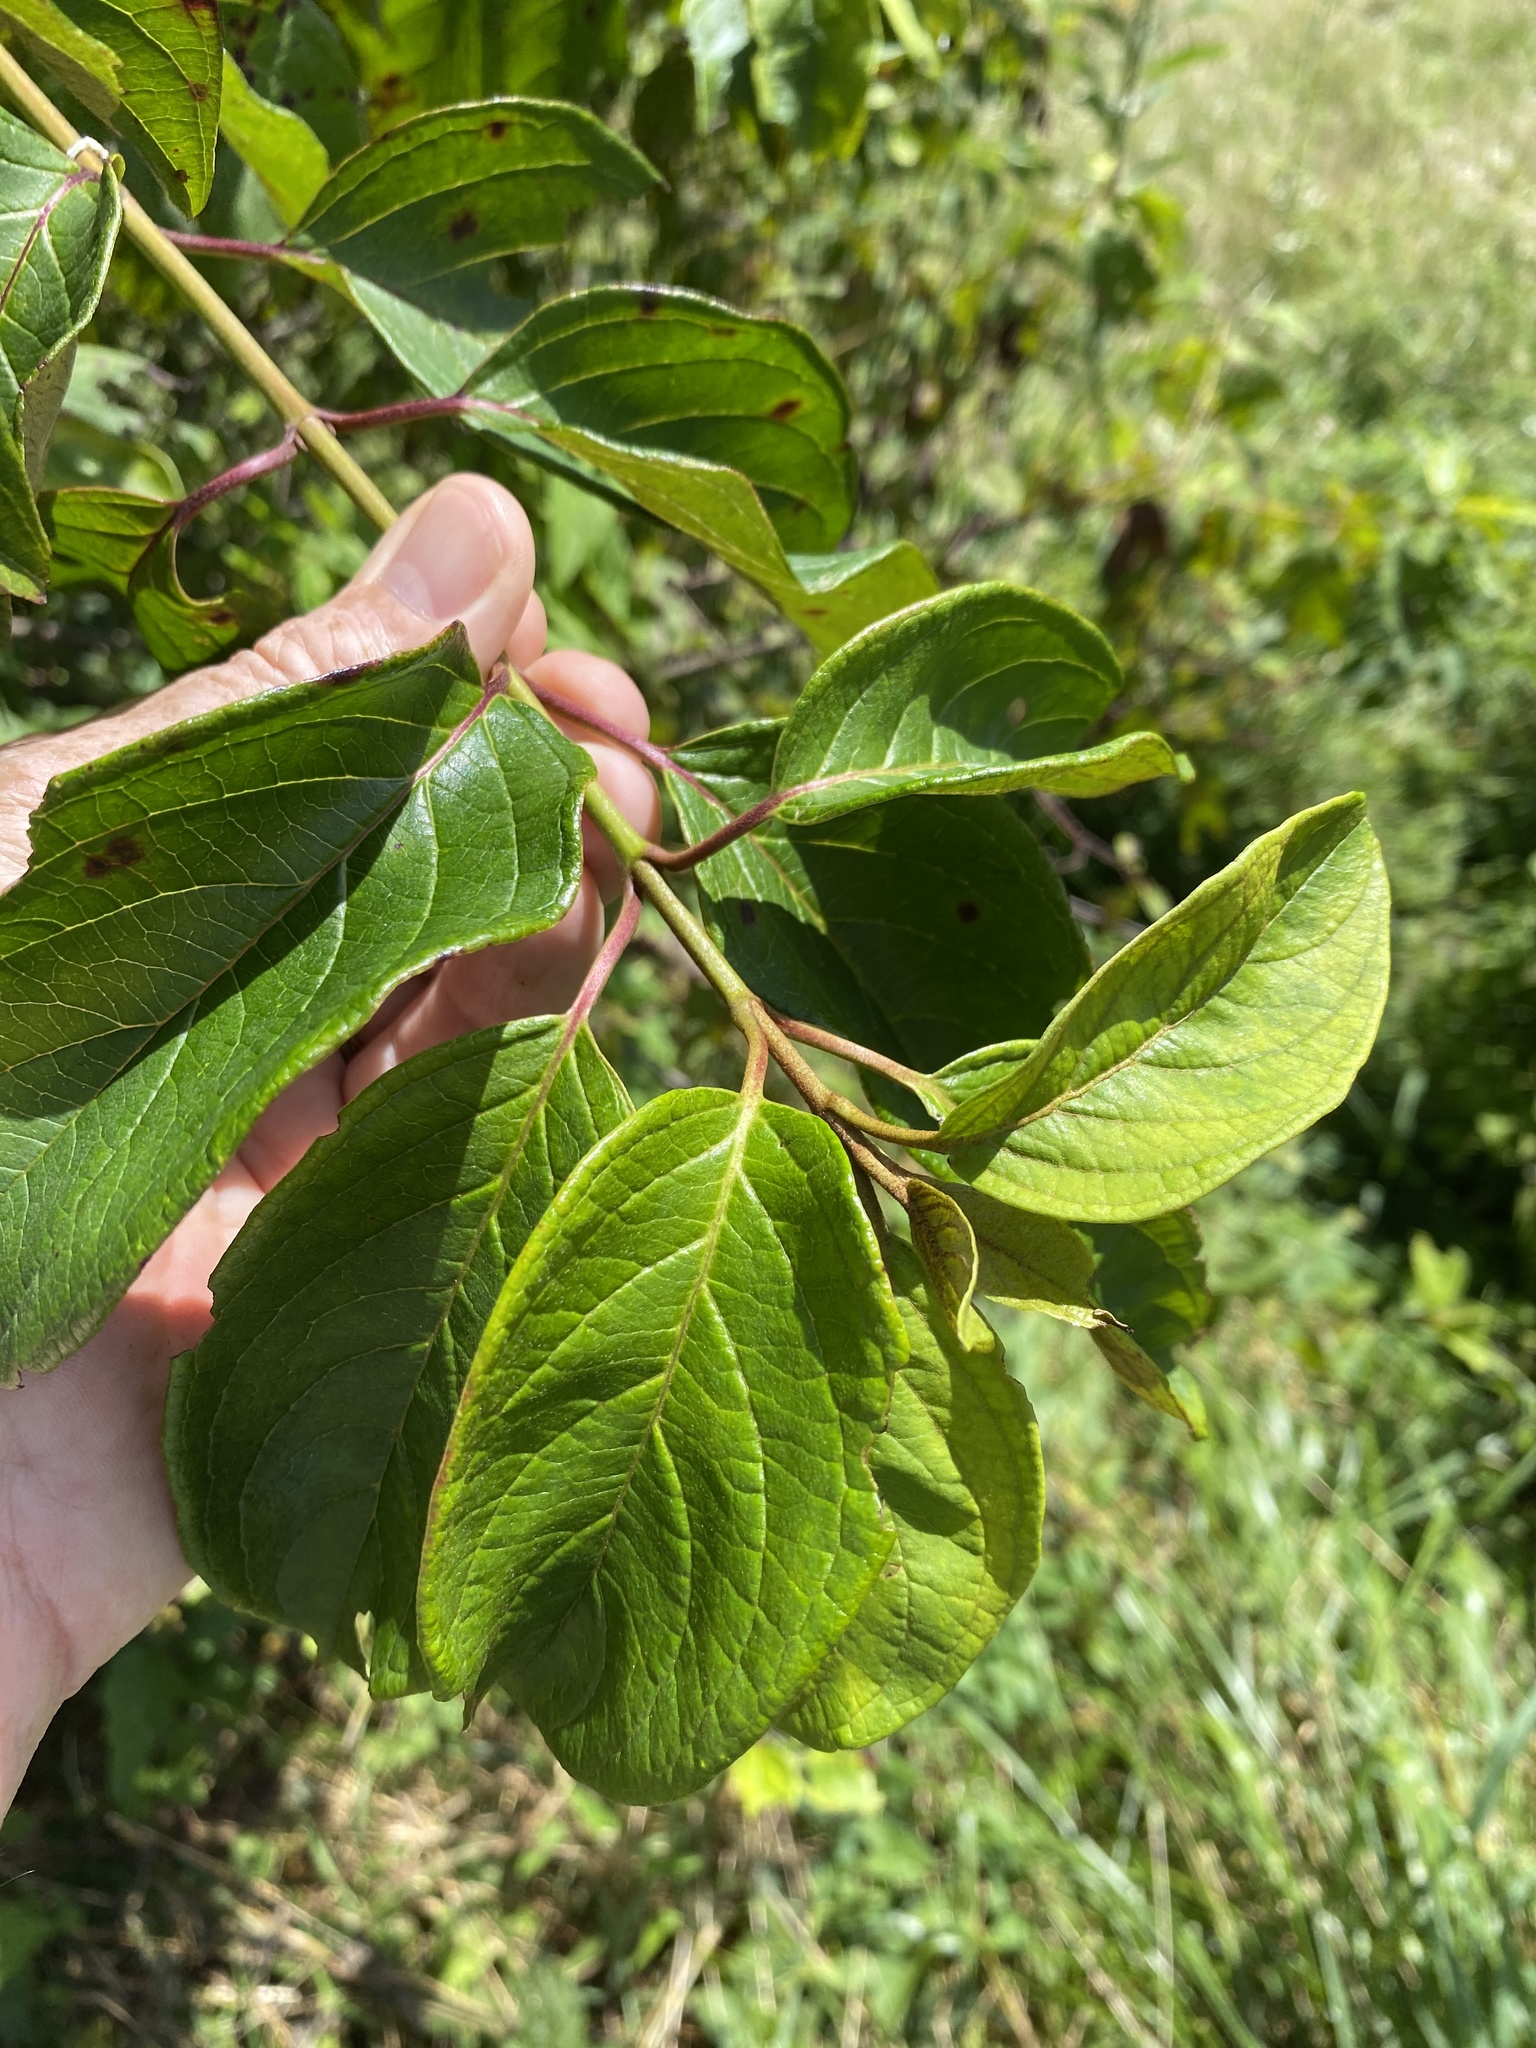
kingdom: Plantae
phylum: Tracheophyta
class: Magnoliopsida
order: Cornales
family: Cornaceae
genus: Cornus
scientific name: Cornus amomum
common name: Silky dogwood
